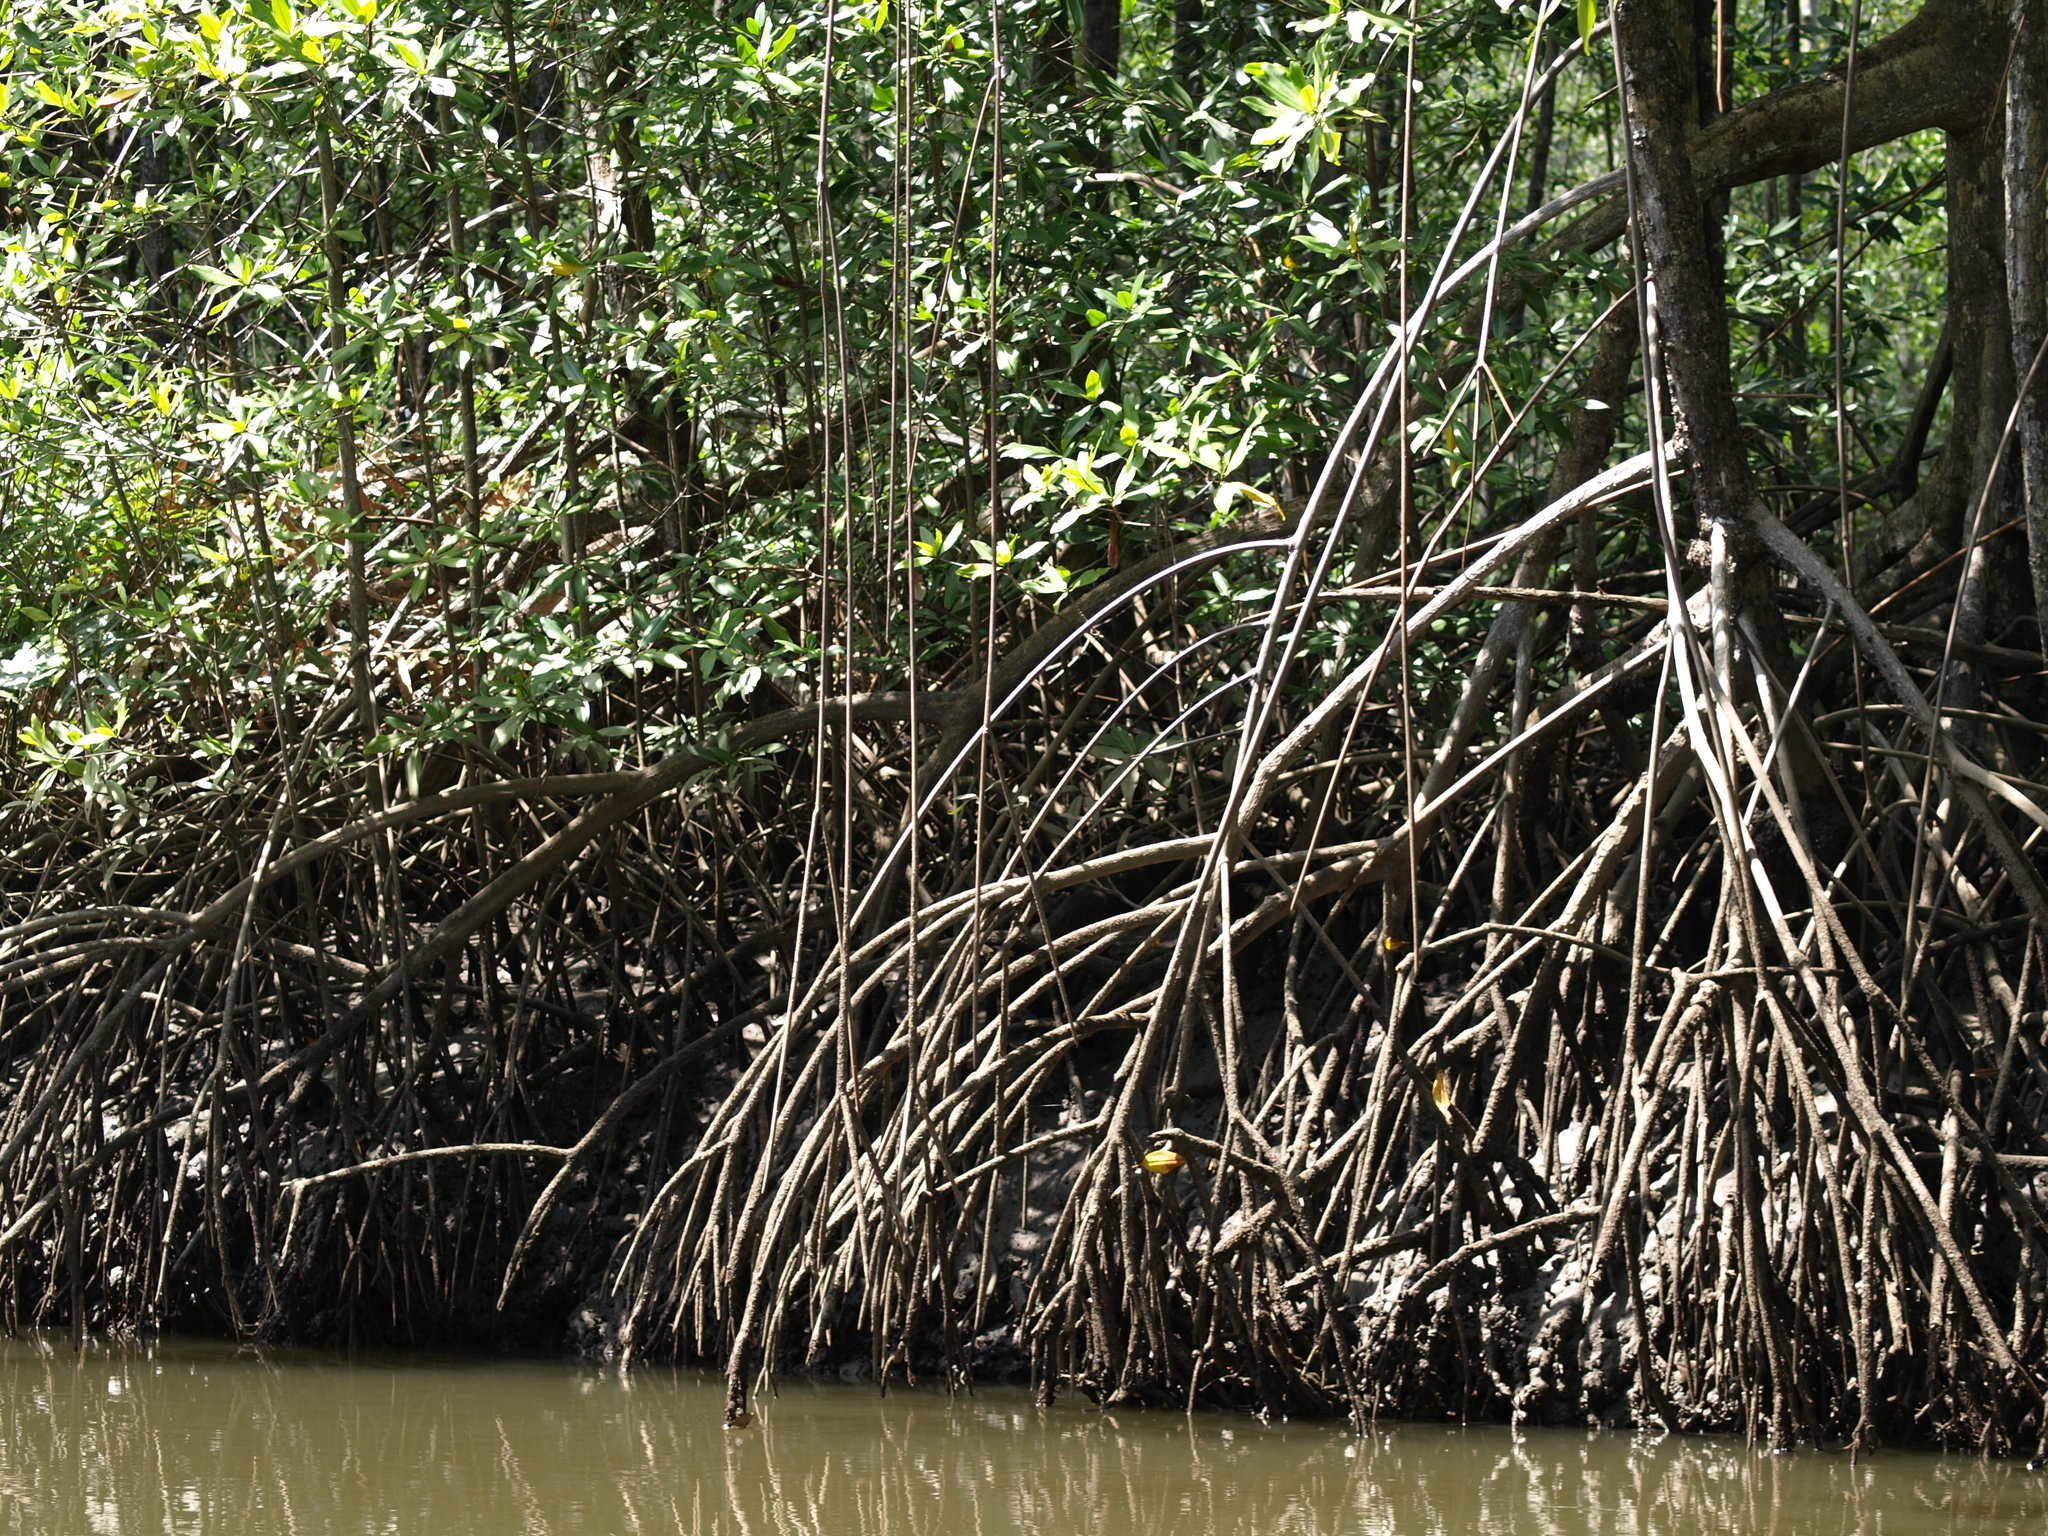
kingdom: Plantae
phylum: Tracheophyta
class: Magnoliopsida
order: Malpighiales
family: Rhizophoraceae
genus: Rhizophora
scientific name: Rhizophora mangle
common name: Red mangrove
